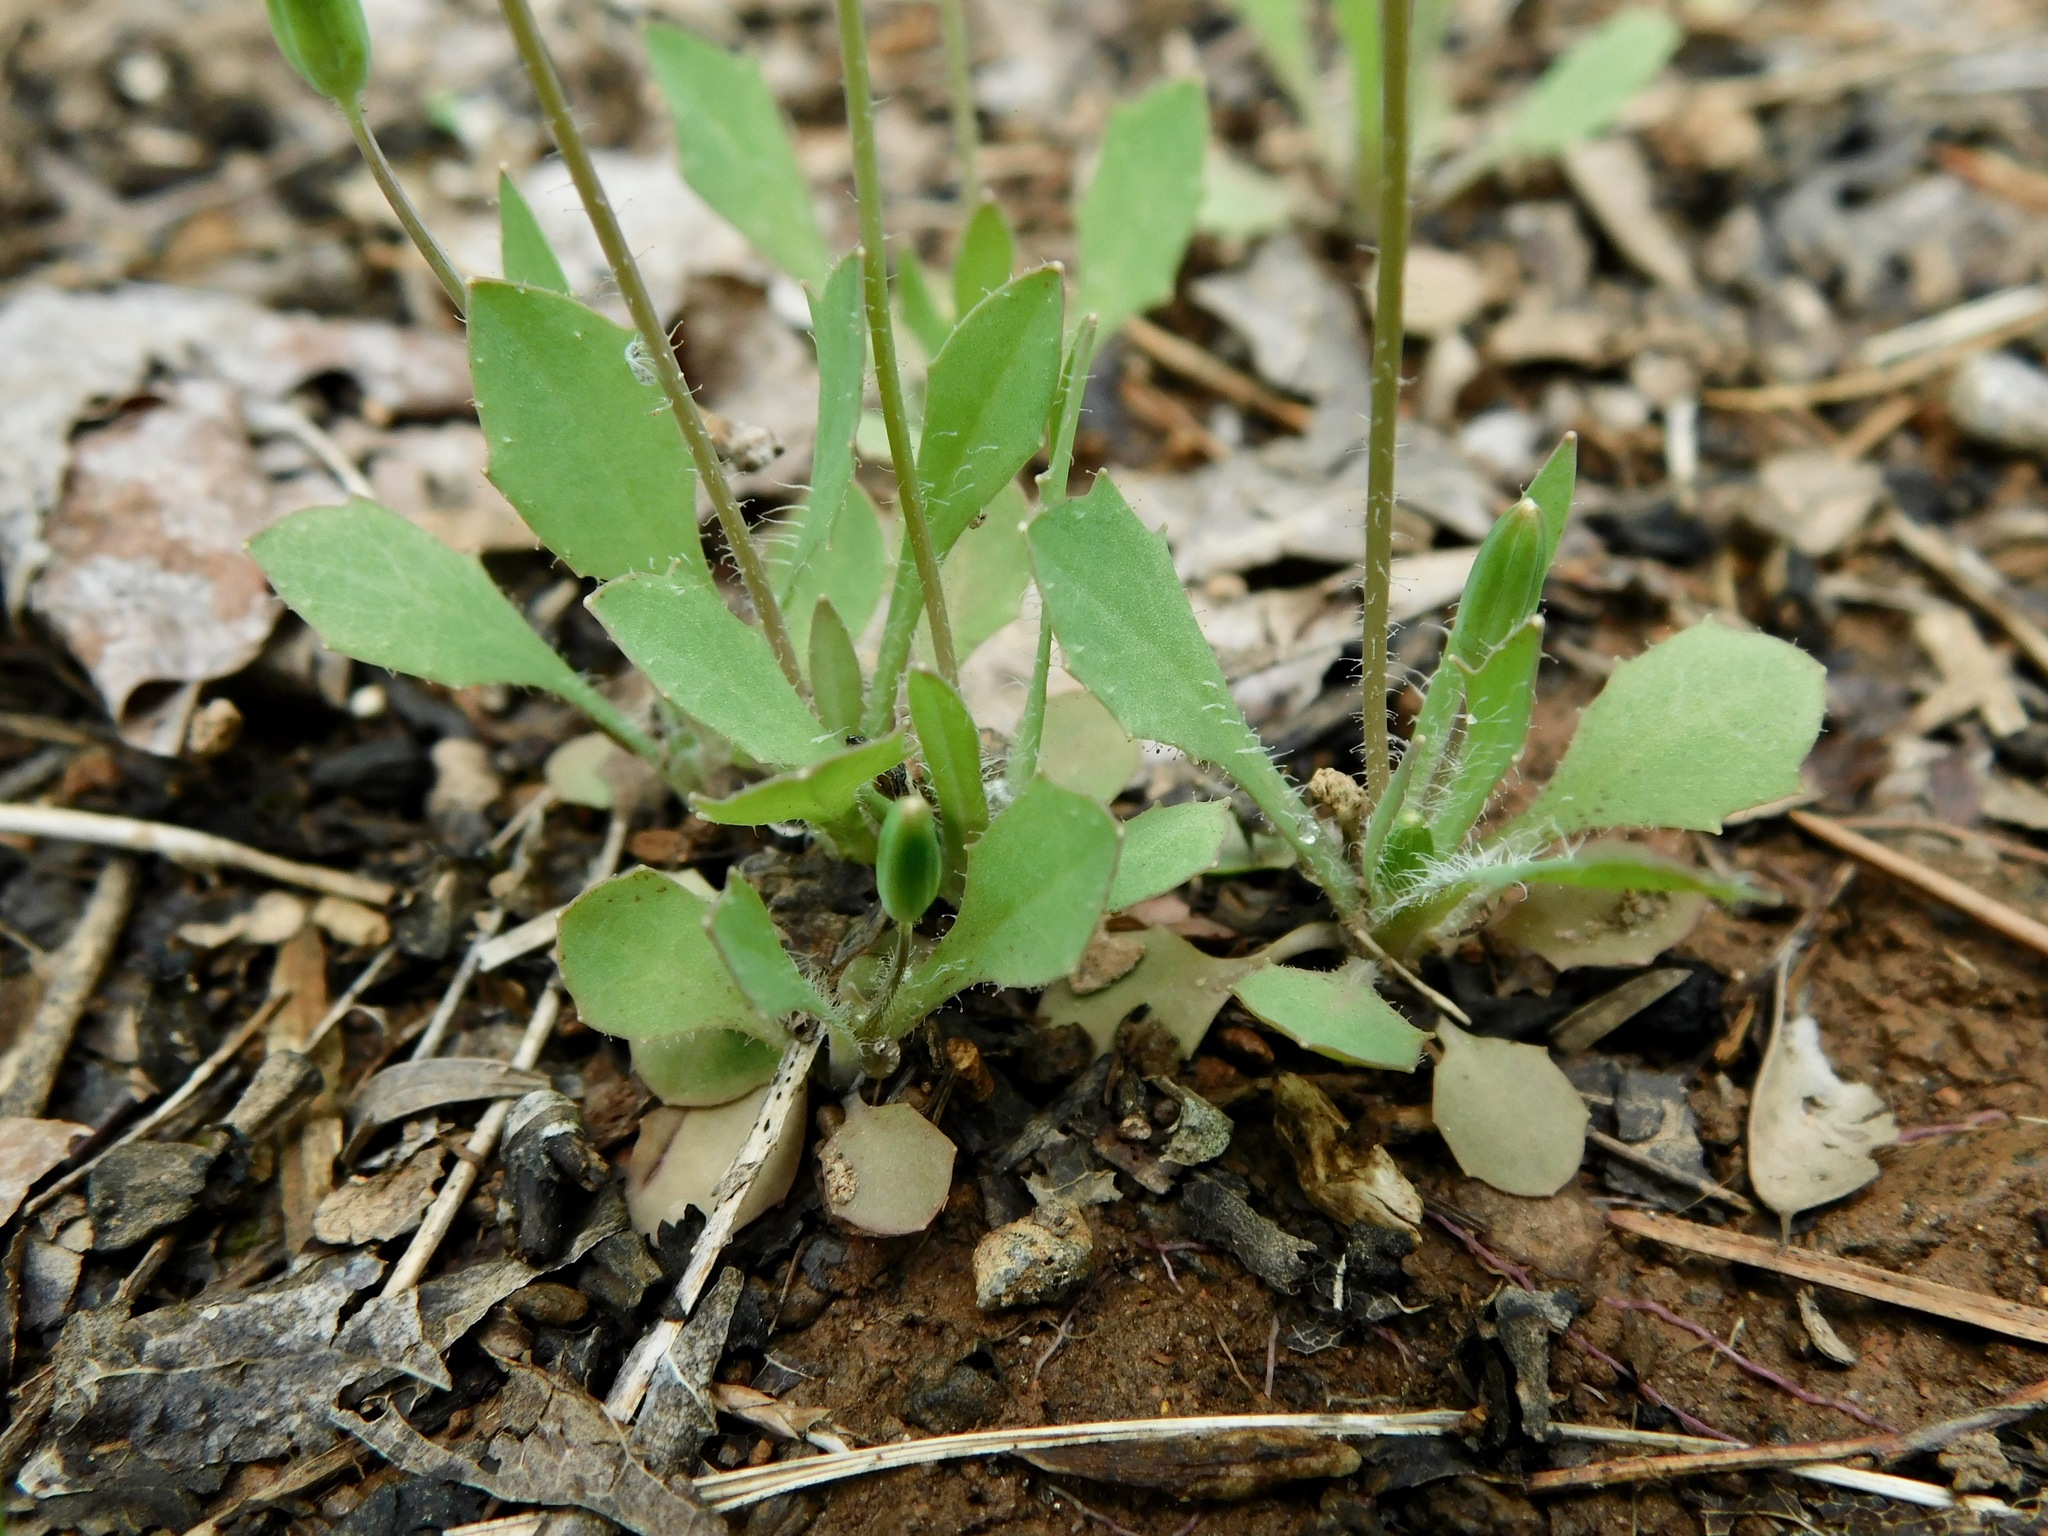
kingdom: Plantae
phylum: Tracheophyta
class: Magnoliopsida
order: Asterales
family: Asteraceae
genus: Krigia
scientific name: Krigia virginica
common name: Virginia dwarf-dandelion
